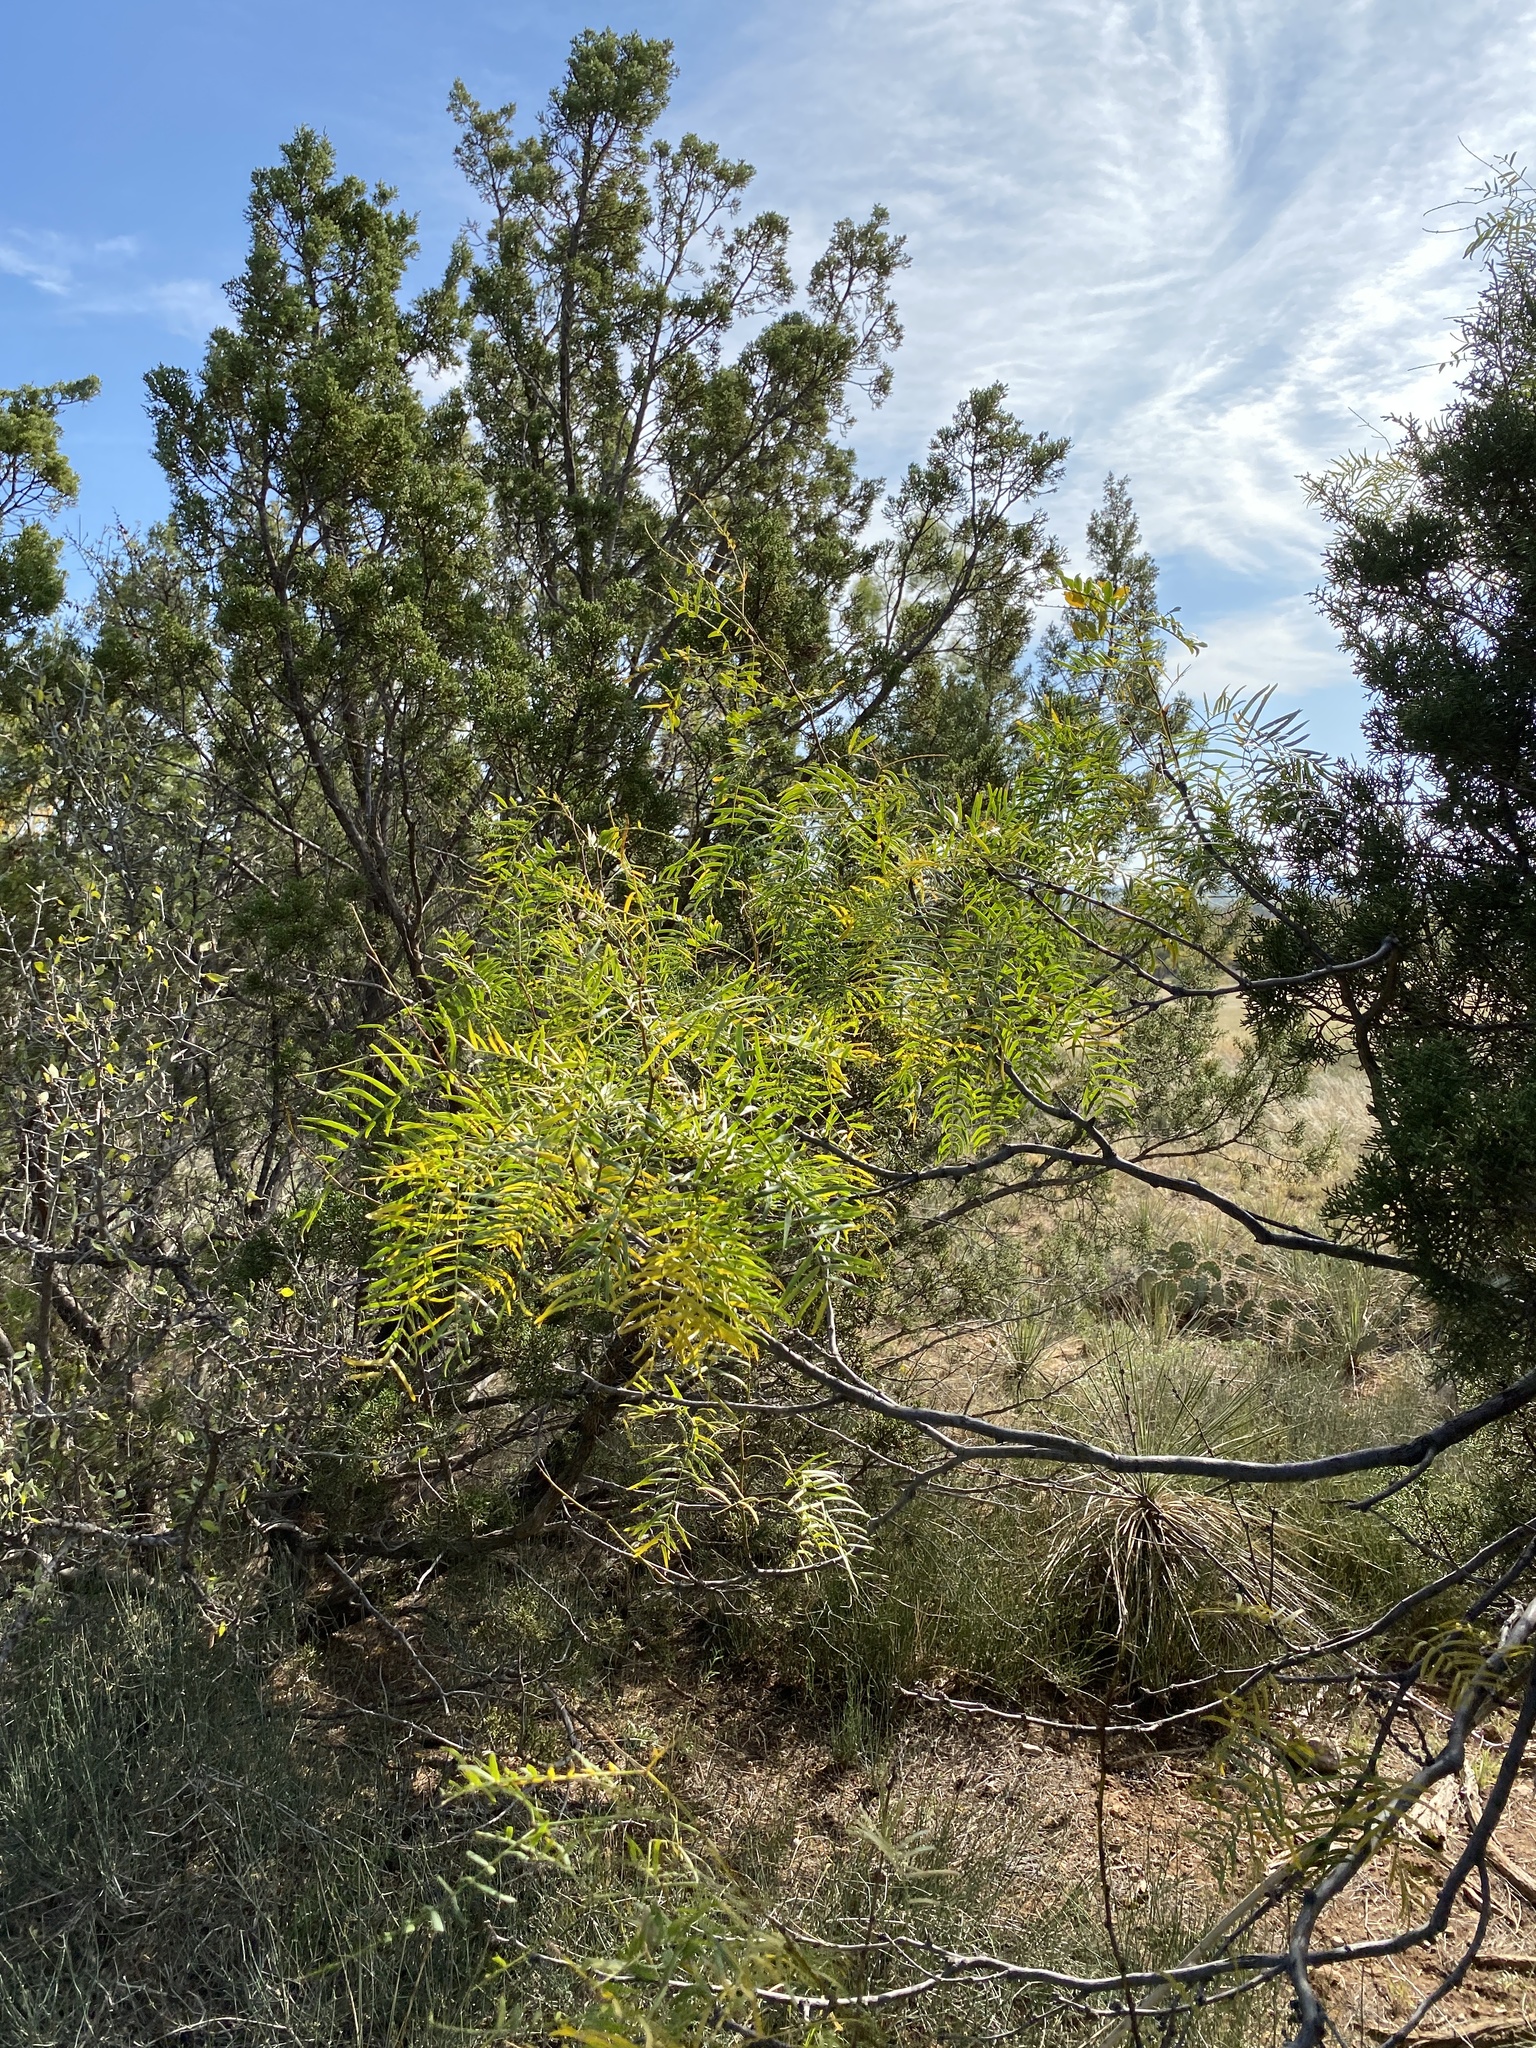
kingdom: Plantae
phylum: Tracheophyta
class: Magnoliopsida
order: Fabales
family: Fabaceae
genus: Prosopis
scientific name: Prosopis glandulosa
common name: Honey mesquite
